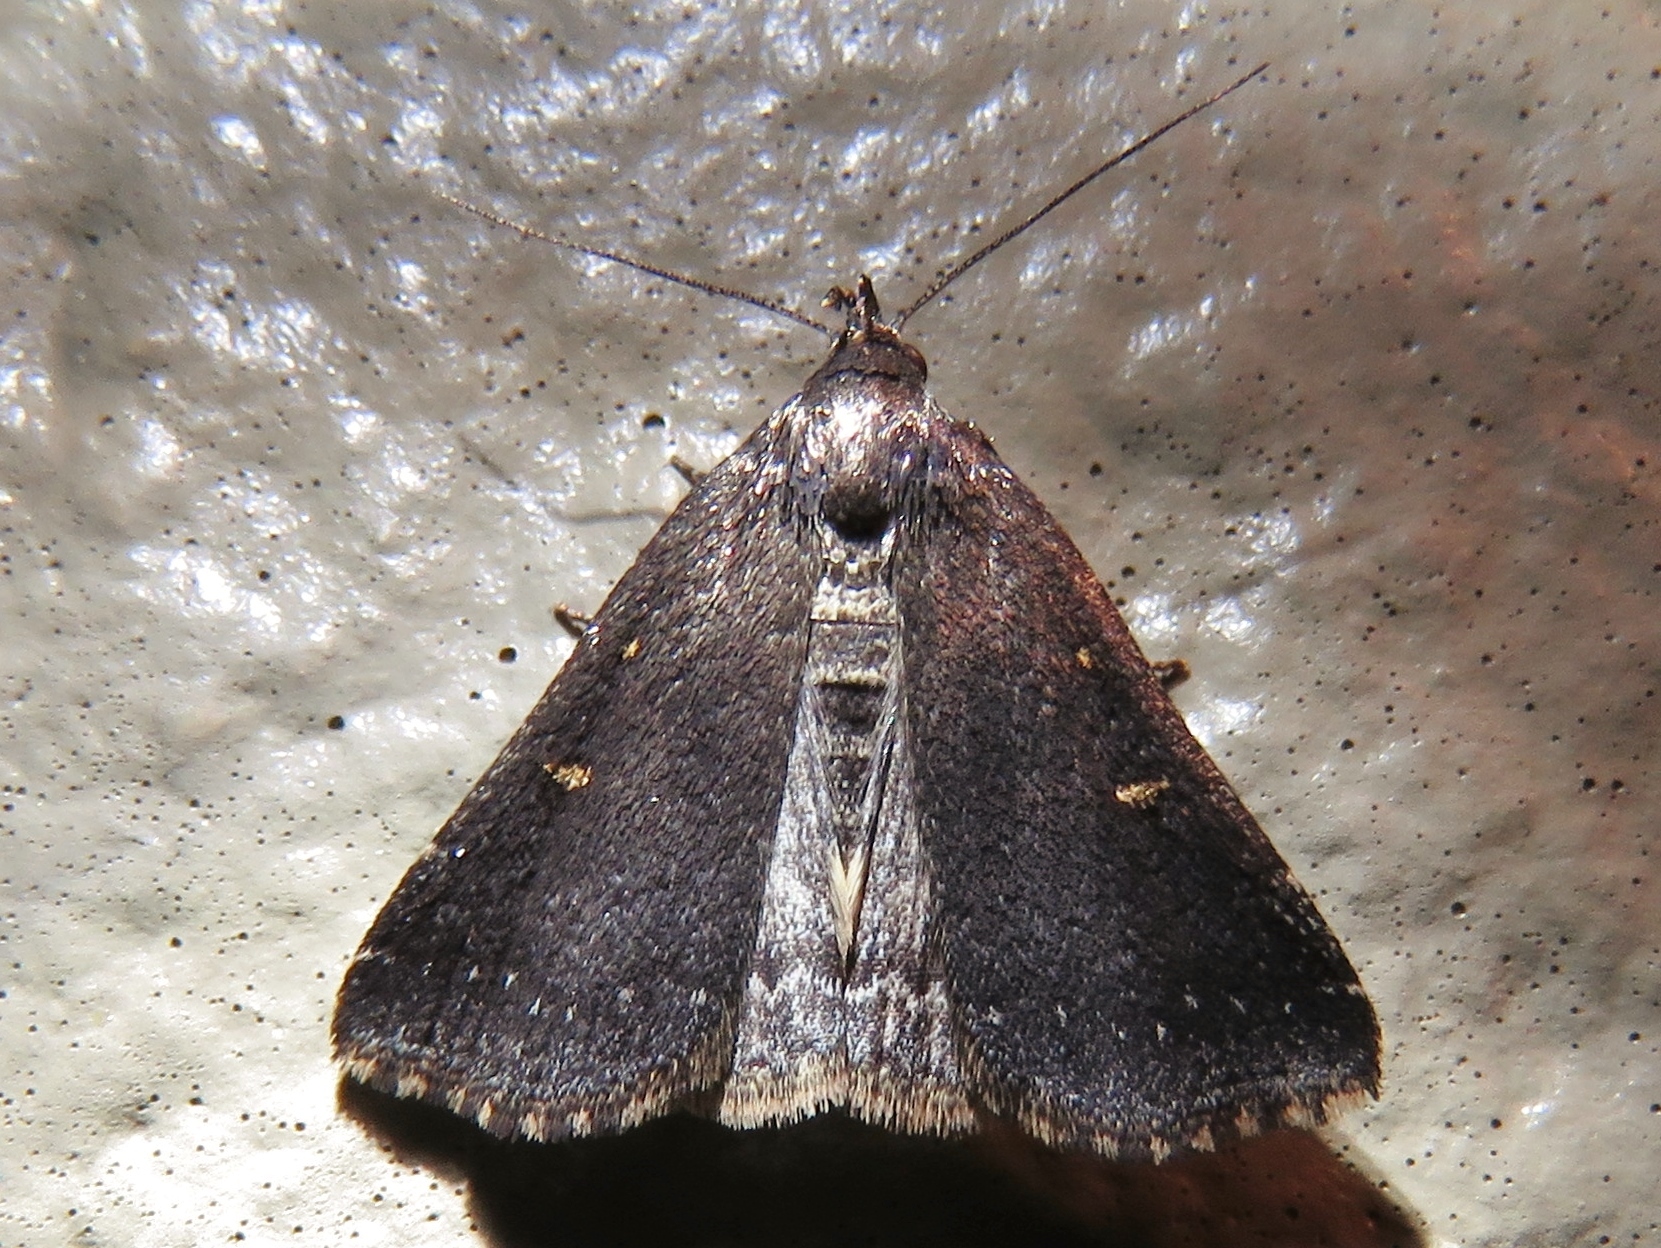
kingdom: Animalia
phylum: Arthropoda
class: Insecta
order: Lepidoptera
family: Erebidae
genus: Tetanolita
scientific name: Tetanolita mynesalis
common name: Smoky tetanolita moth
